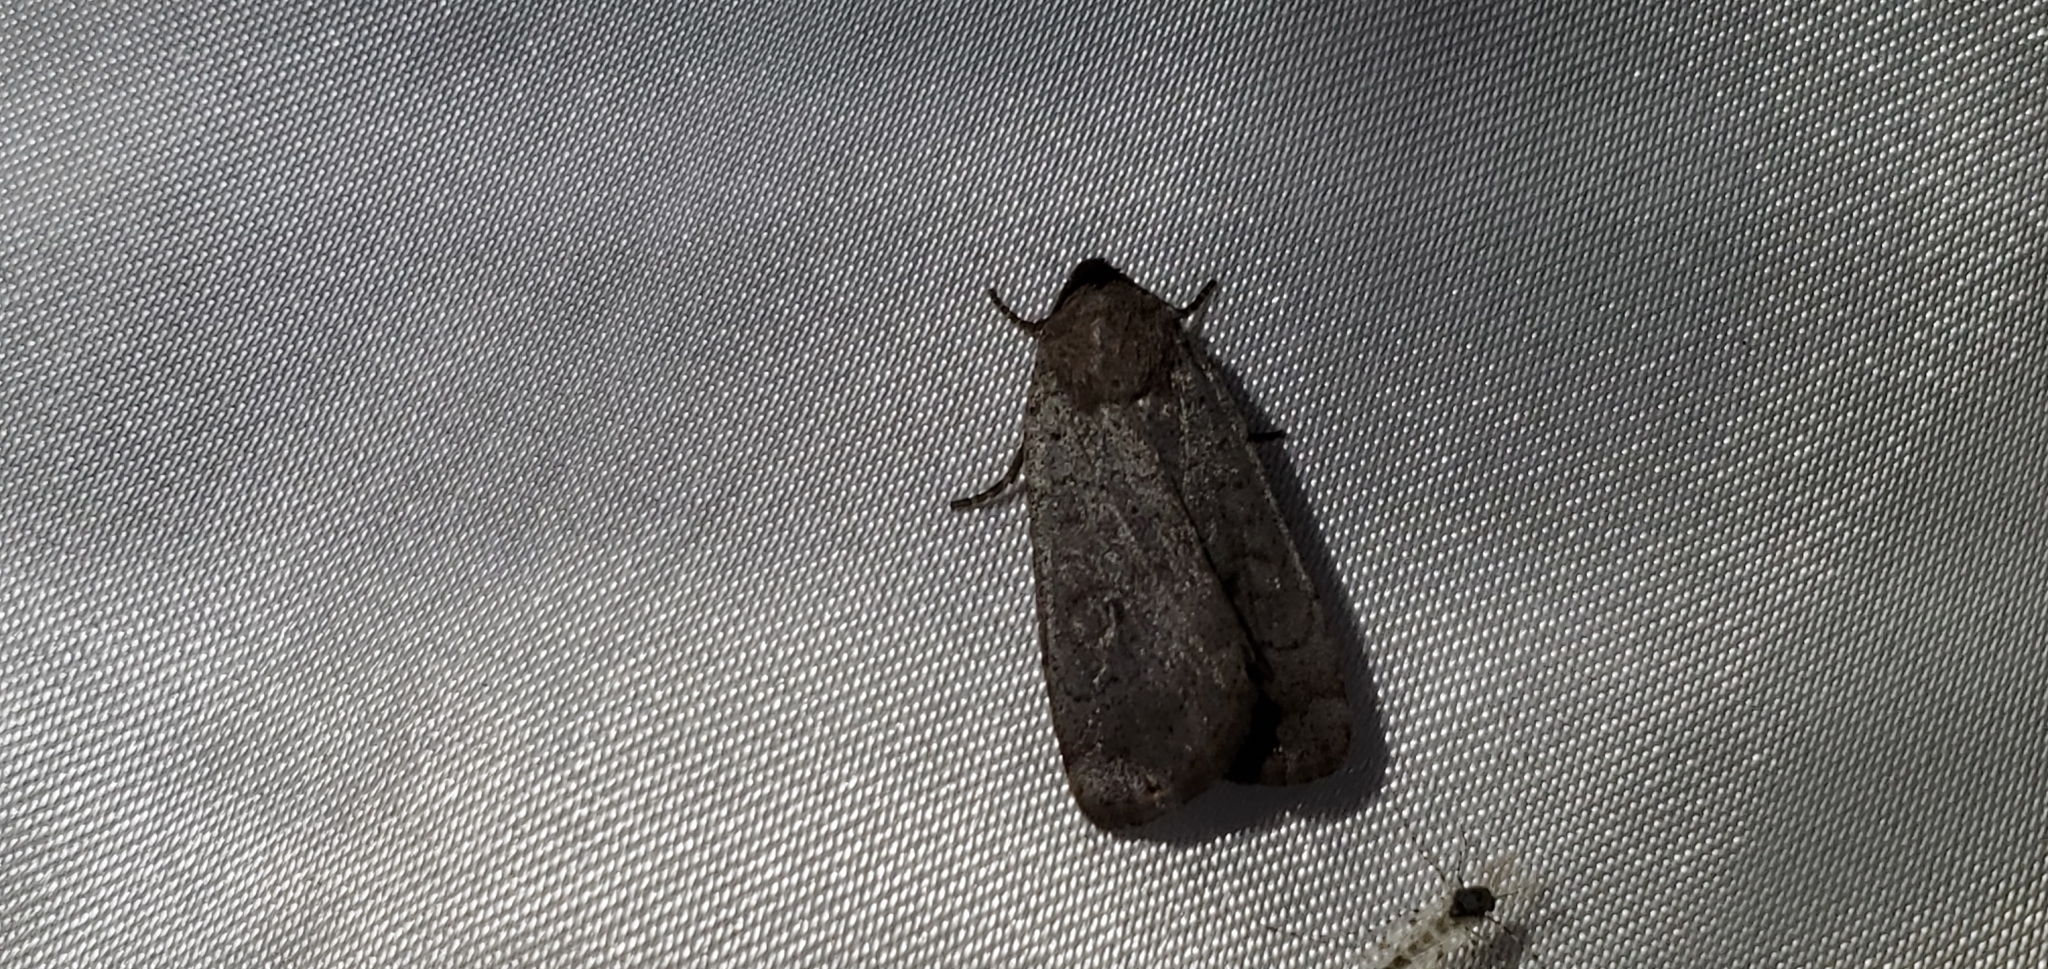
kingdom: Animalia
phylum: Arthropoda
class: Insecta
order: Lepidoptera
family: Noctuidae
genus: Protolampra
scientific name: Protolampra rufipectus
